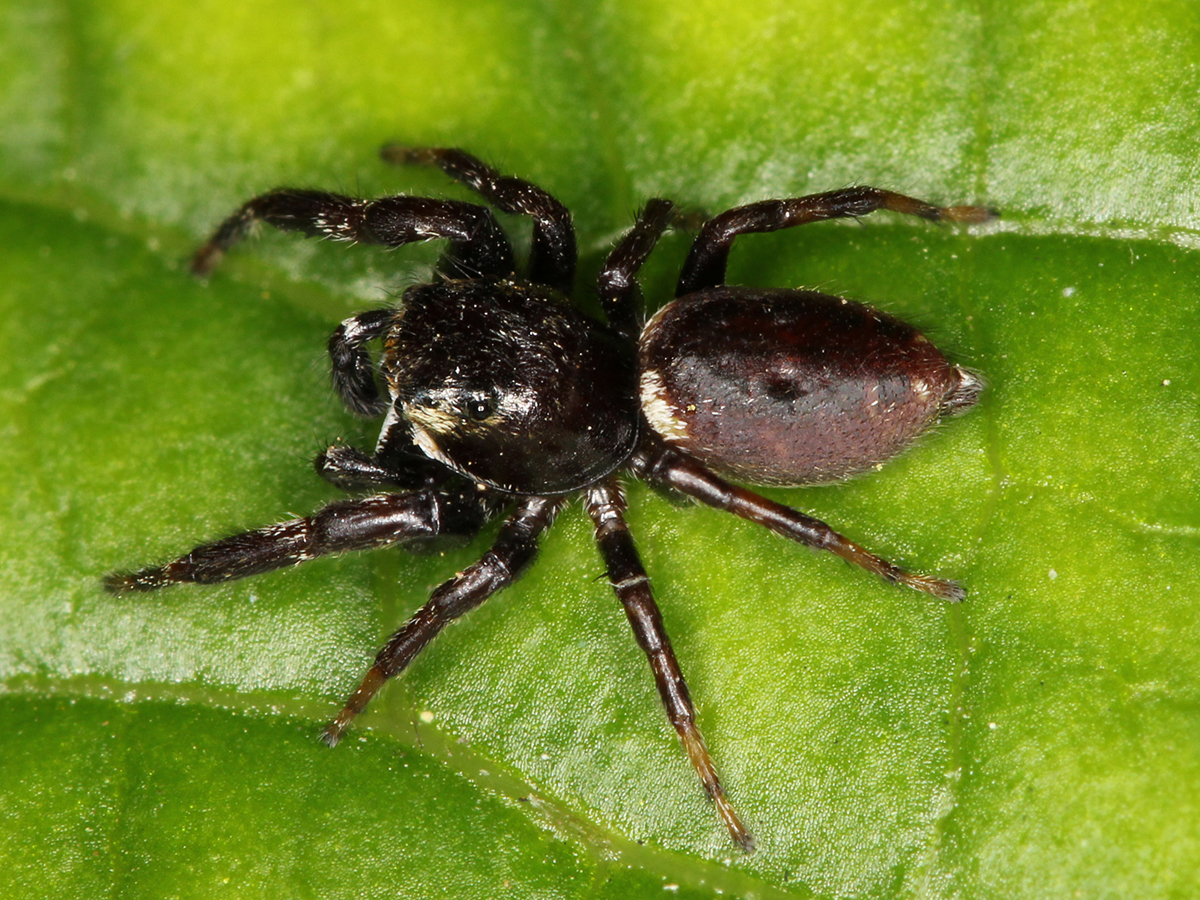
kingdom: Animalia
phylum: Arthropoda
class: Arachnida
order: Araneae
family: Salticidae
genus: Metaphidippus
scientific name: Metaphidippus manni
